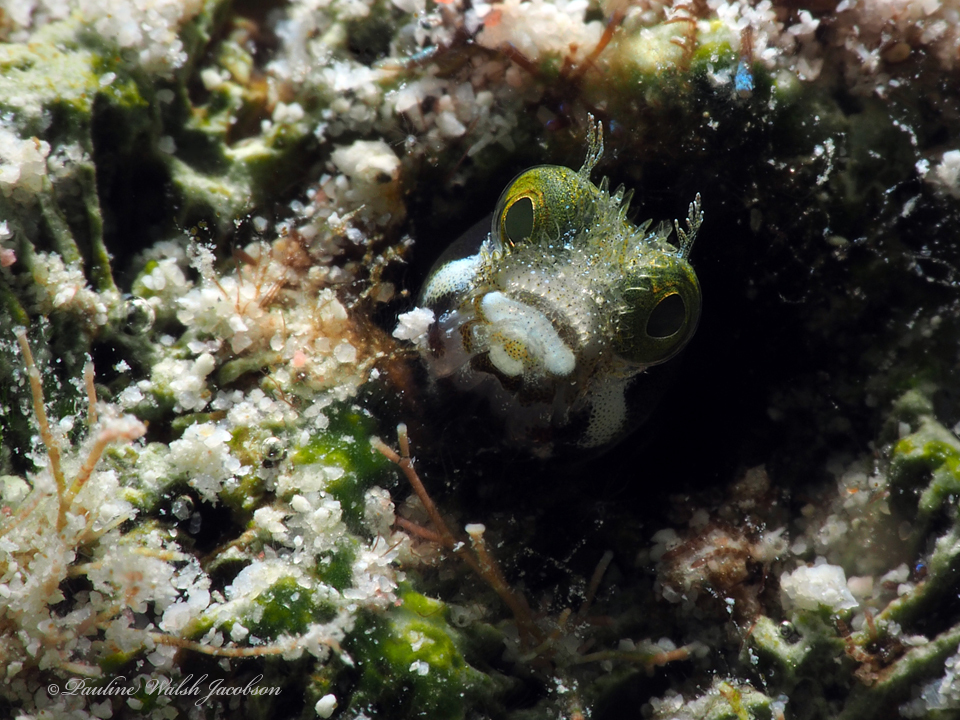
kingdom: Animalia
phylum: Chordata
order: Perciformes
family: Chaenopsidae
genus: Acanthemblemaria
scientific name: Acanthemblemaria spinosa
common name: Spinyhead blenny
